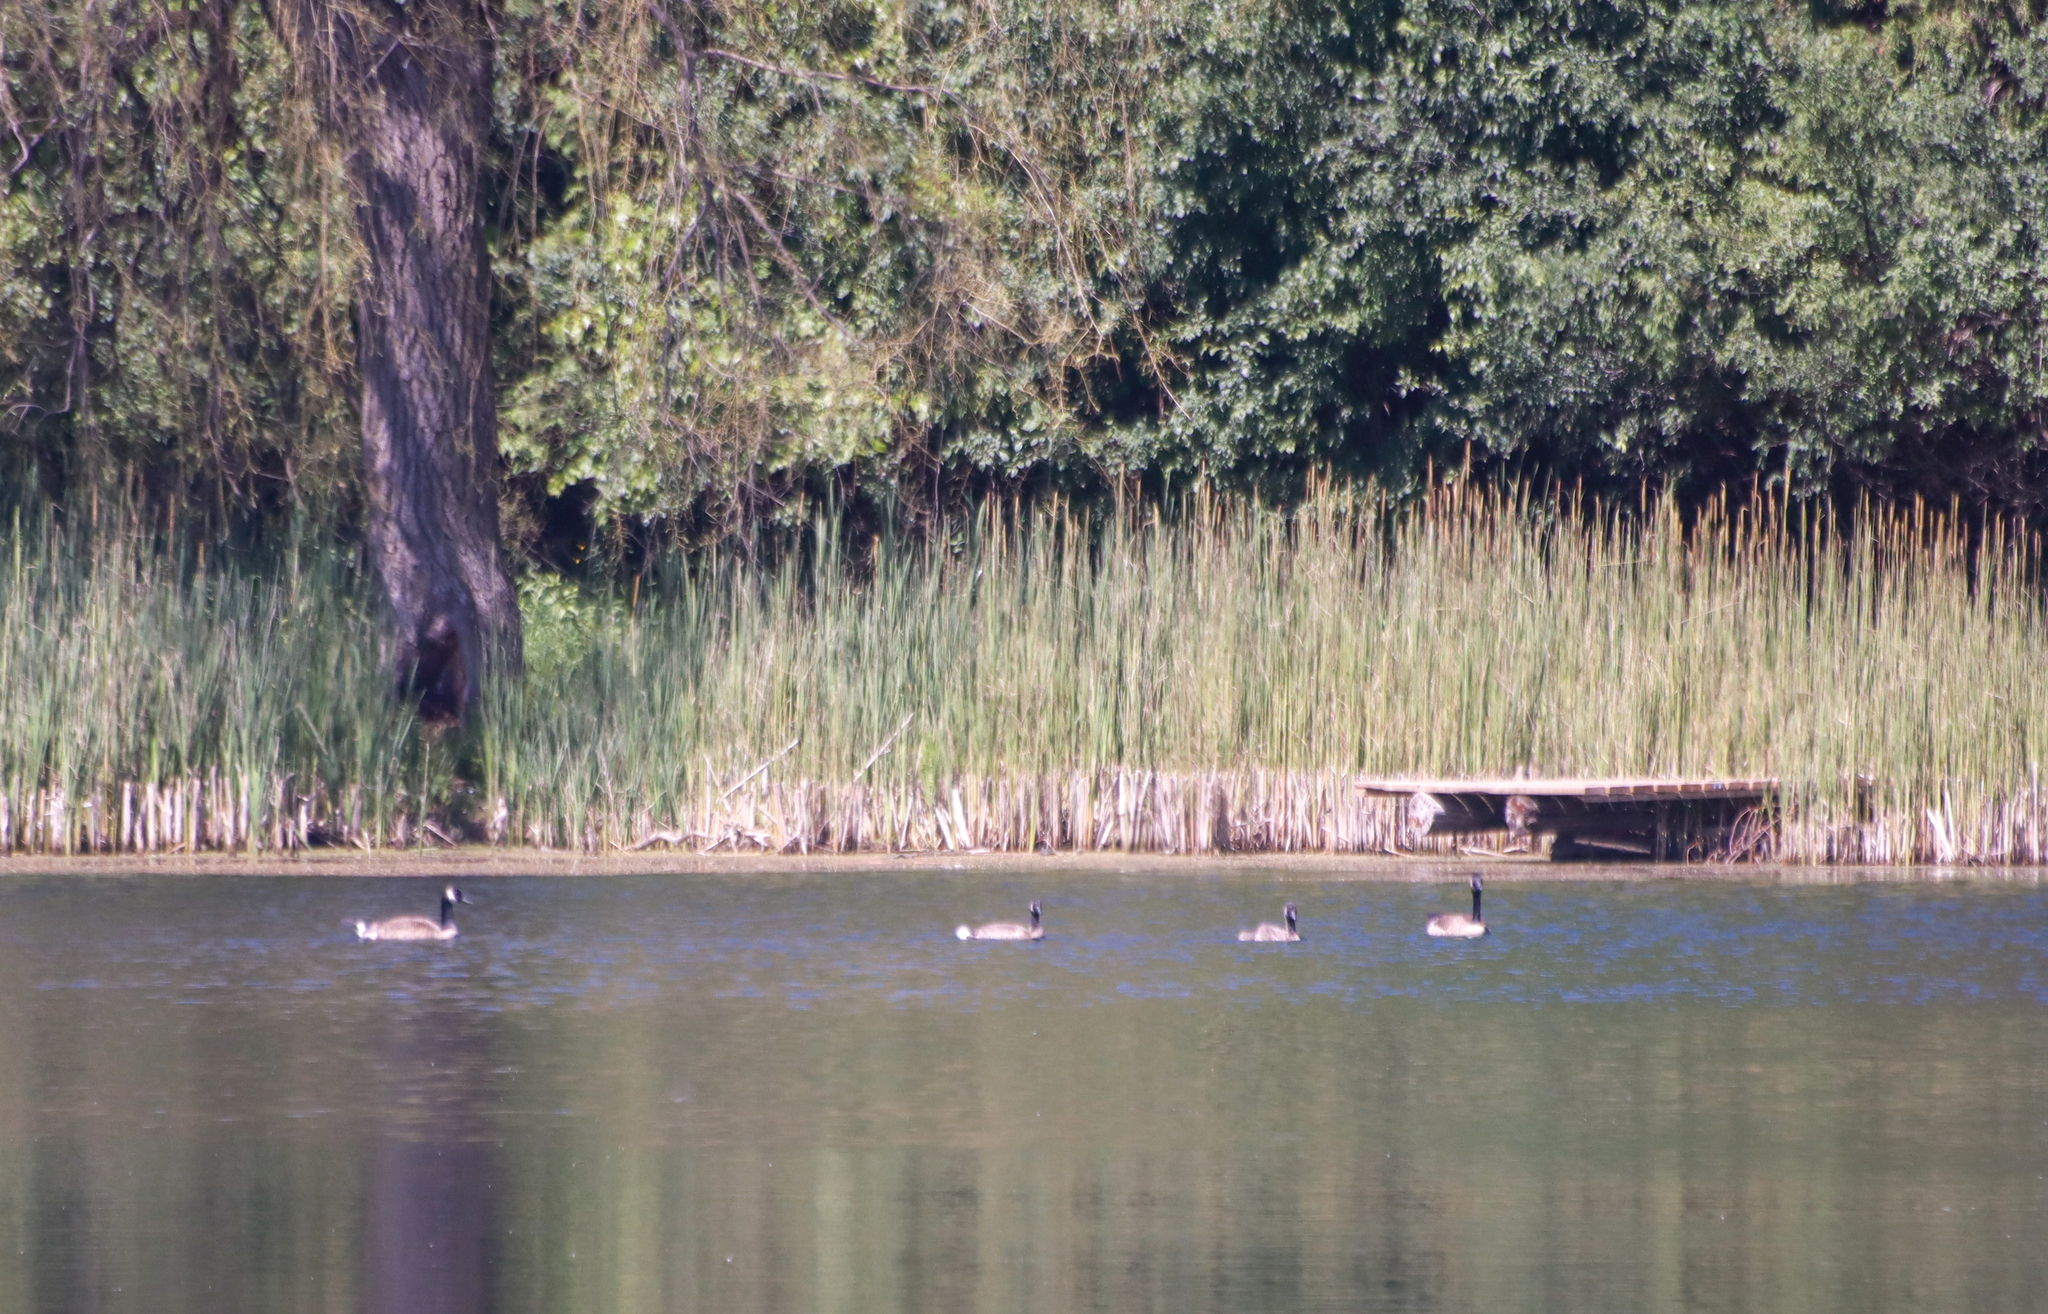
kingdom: Animalia
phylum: Chordata
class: Aves
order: Anseriformes
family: Anatidae
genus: Branta
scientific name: Branta canadensis
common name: Canada goose
